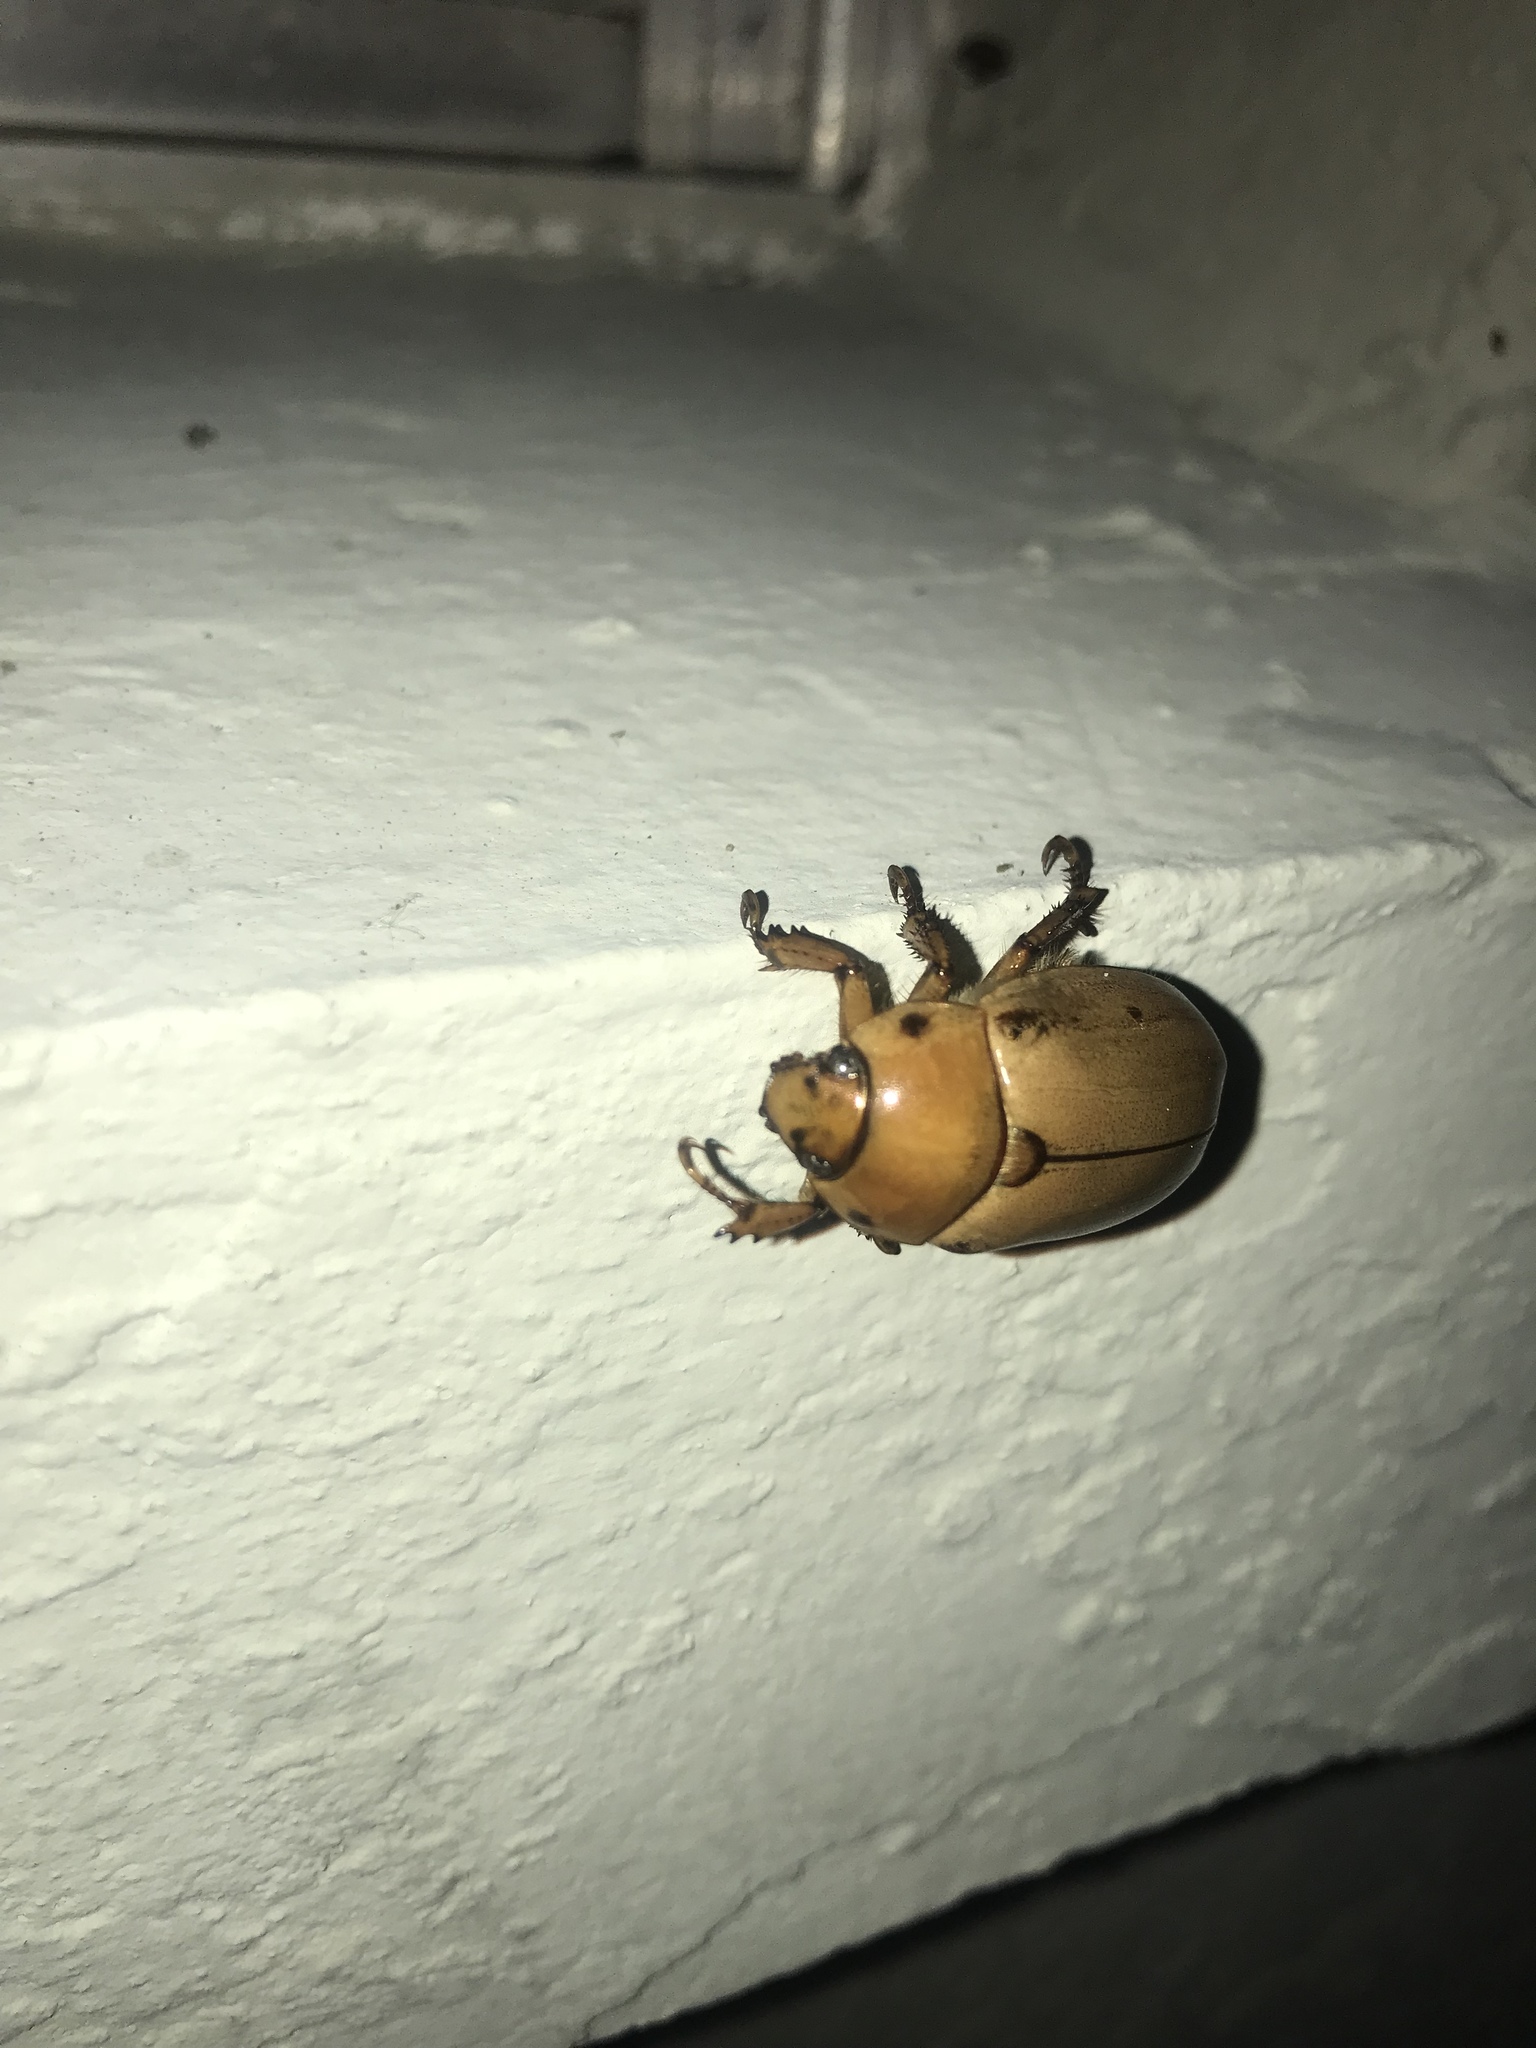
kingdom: Animalia
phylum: Arthropoda
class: Insecta
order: Coleoptera
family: Scarabaeidae
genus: Pelidnota
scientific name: Pelidnota punctata
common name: Grapevine beetle
